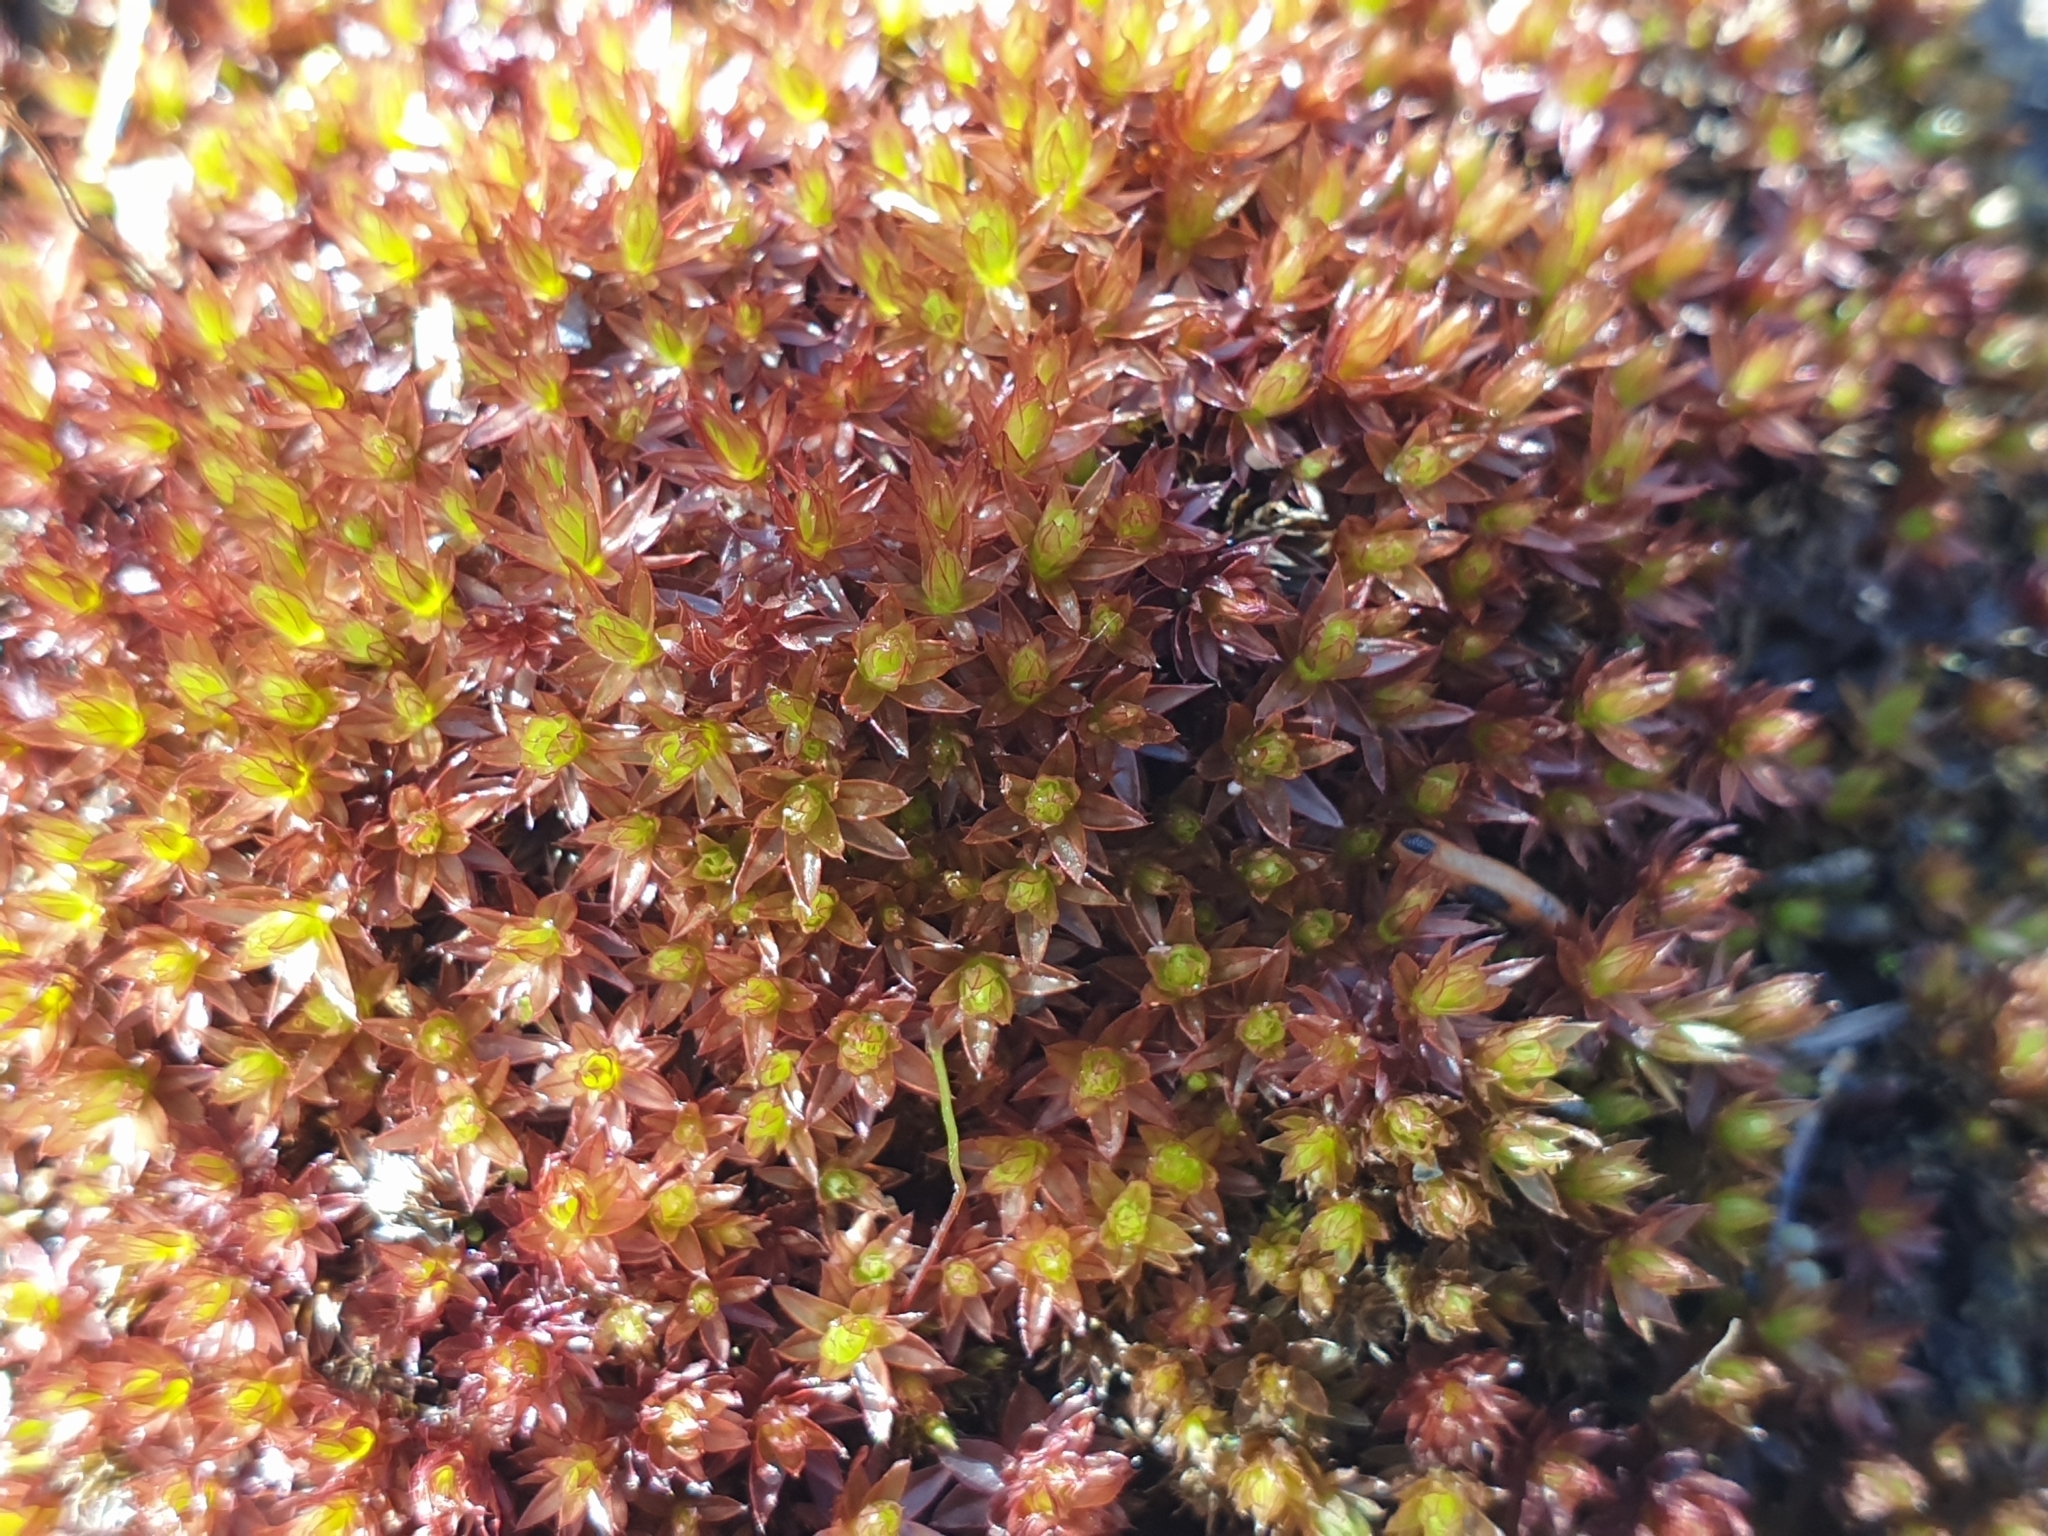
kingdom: Plantae
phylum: Bryophyta
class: Bryopsida
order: Bryales
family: Bryaceae
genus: Ptychostomum
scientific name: Ptychostomum pseudotriquetrum
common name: Long-leaved thread moss
